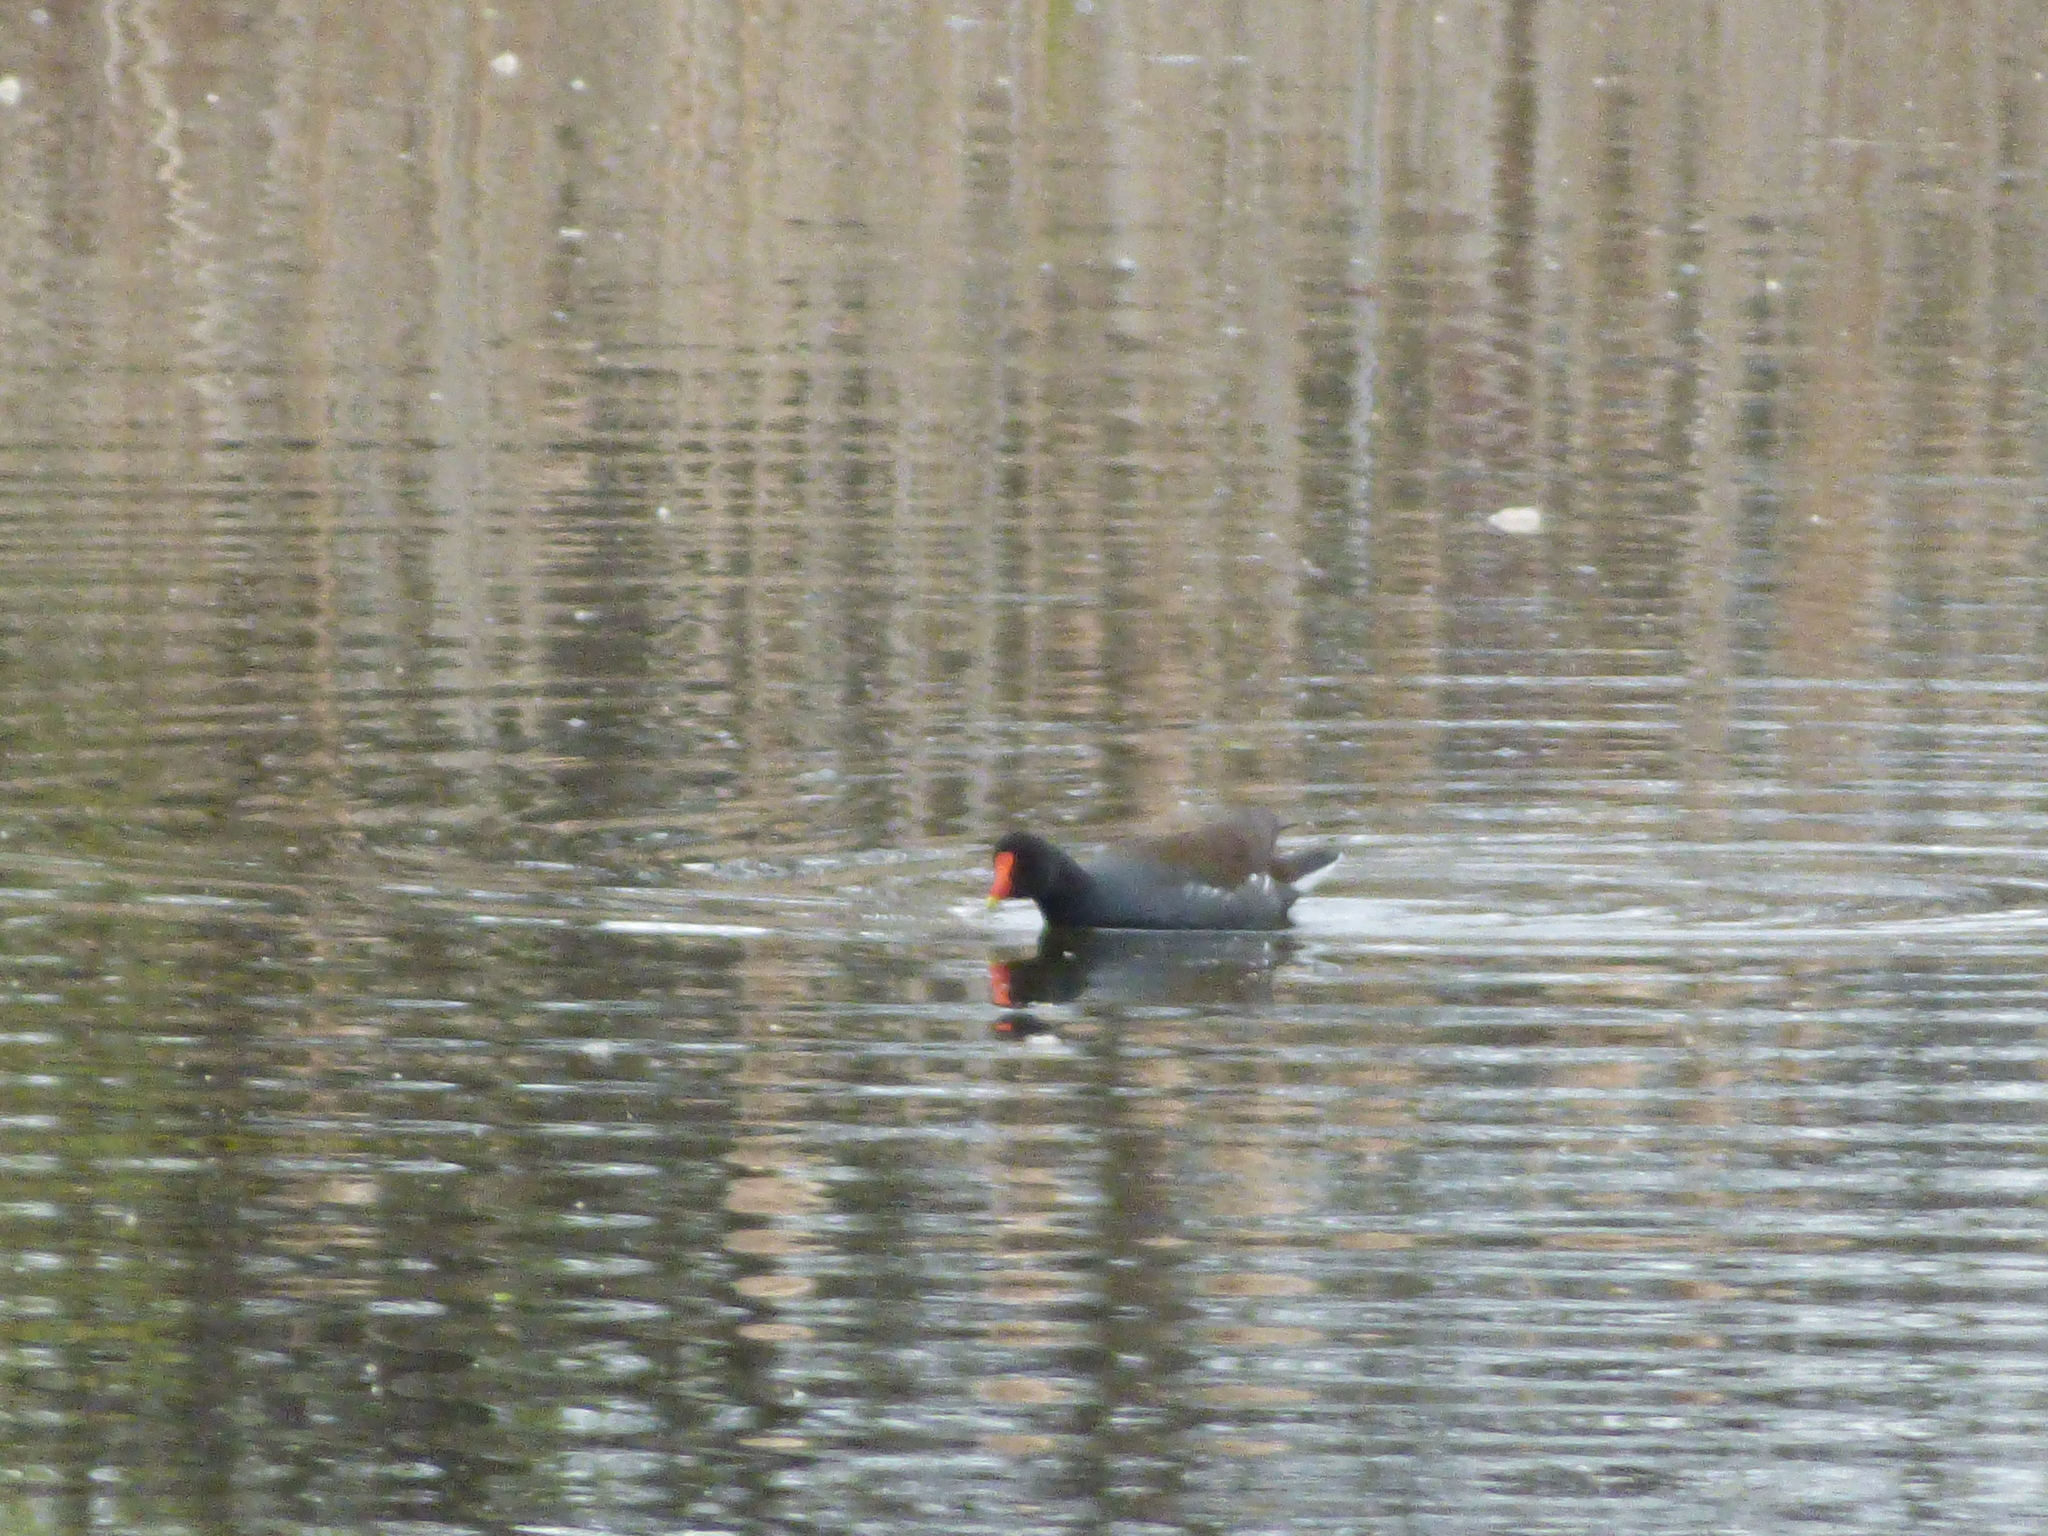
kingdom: Animalia
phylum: Chordata
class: Aves
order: Gruiformes
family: Rallidae
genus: Gallinula
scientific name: Gallinula chloropus
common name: Common moorhen
